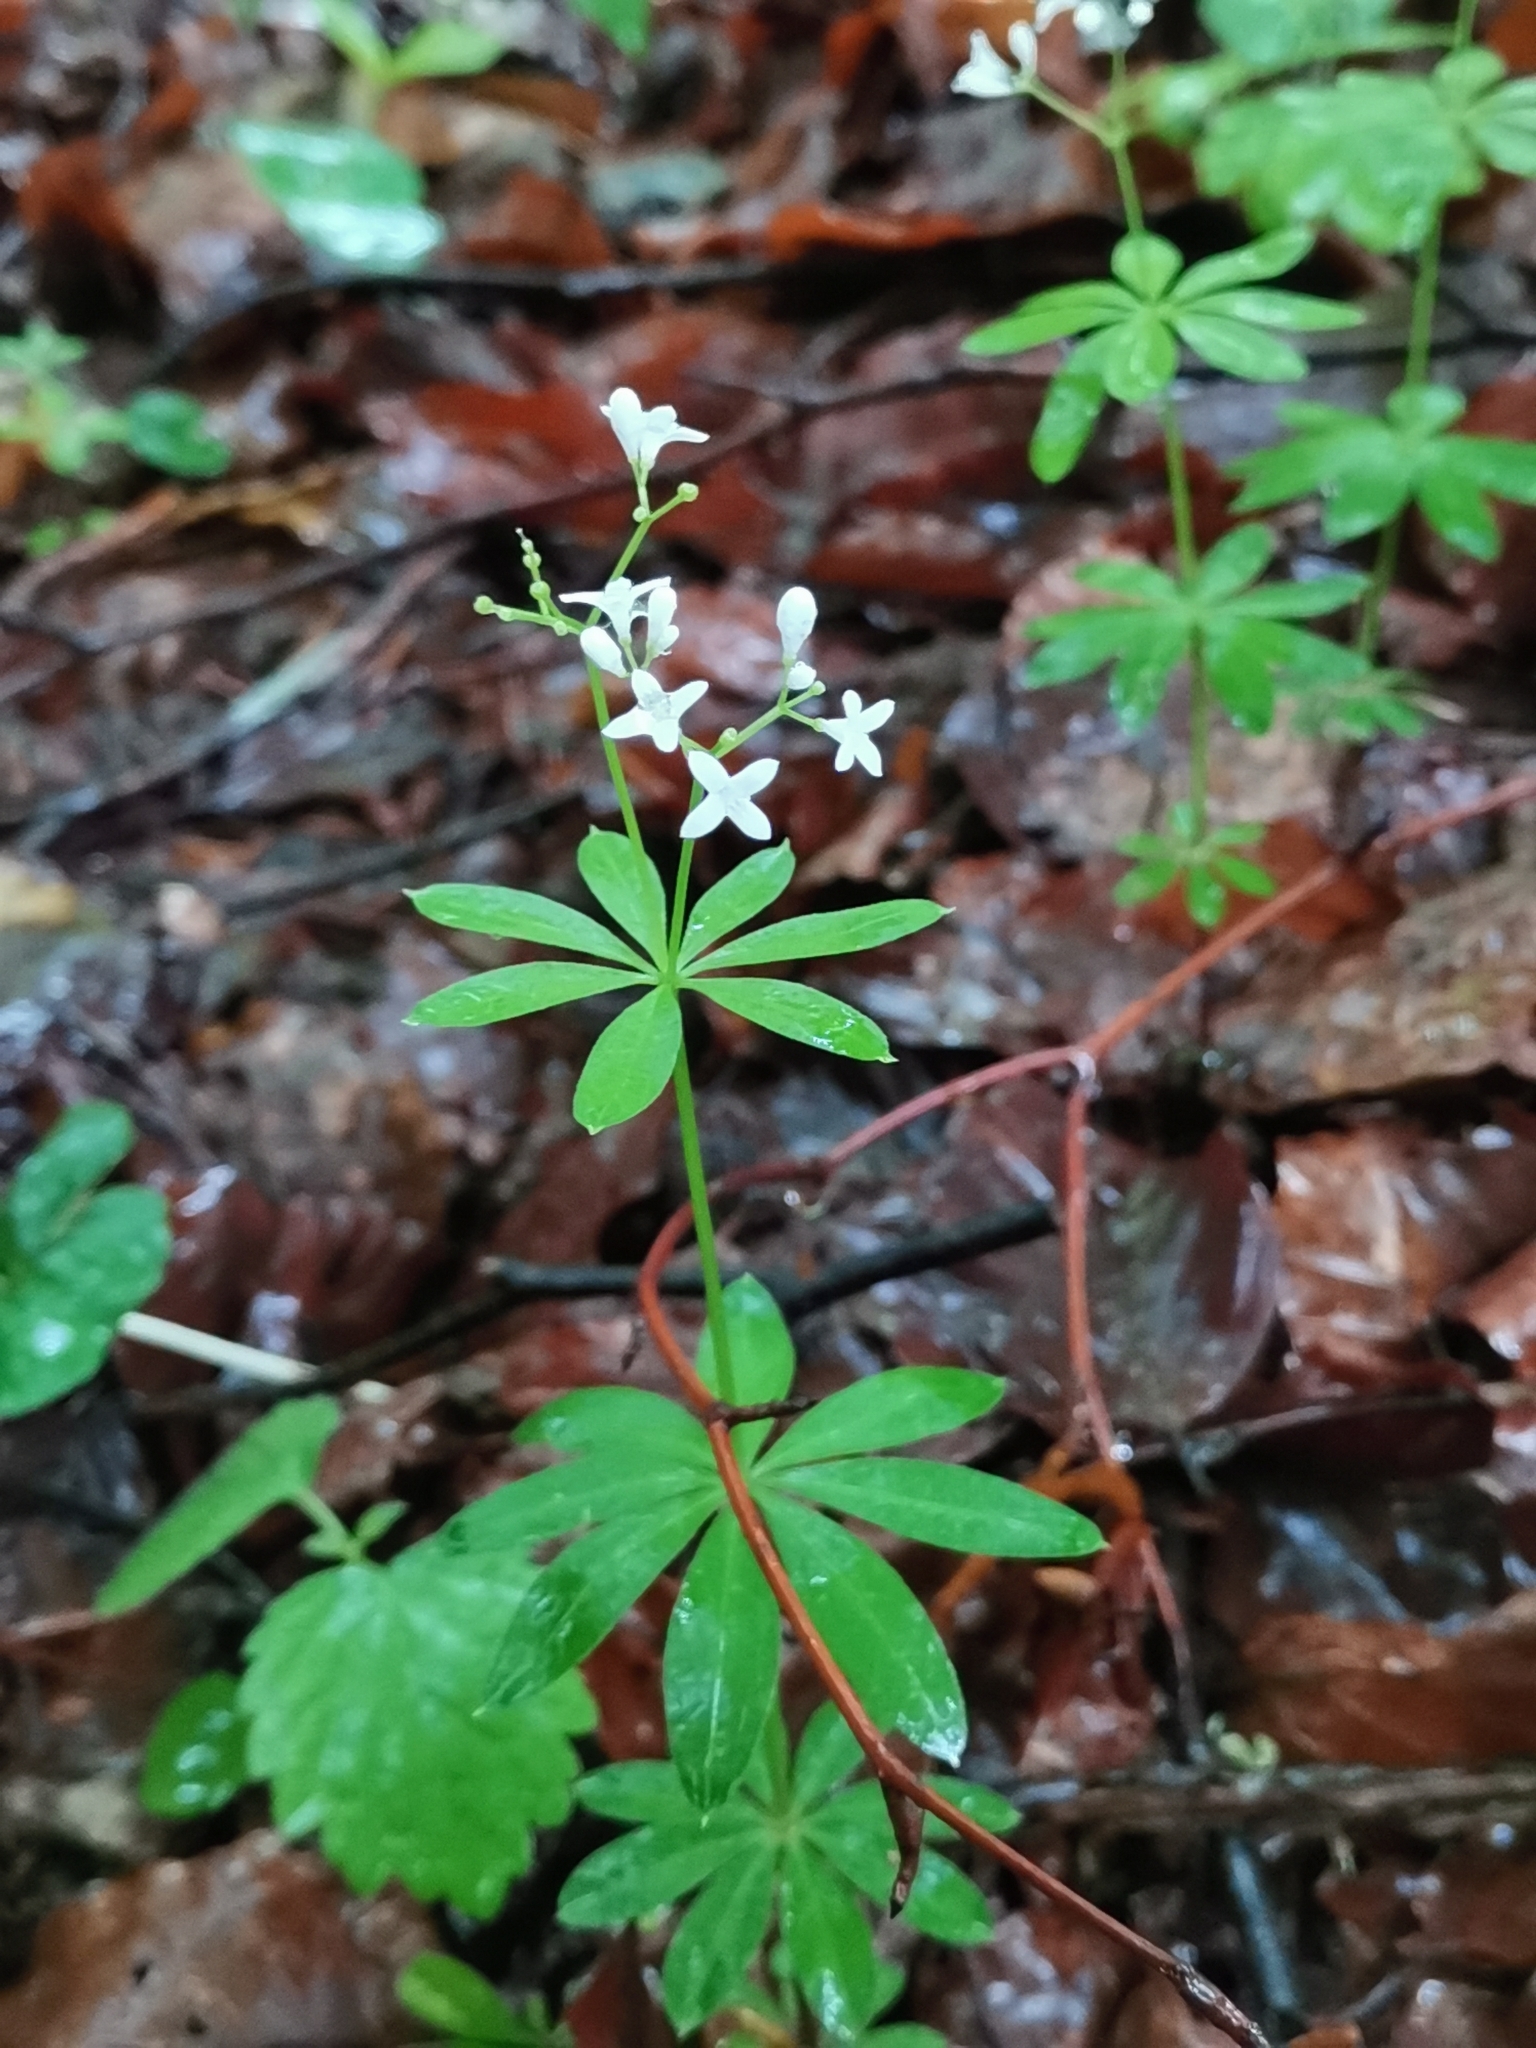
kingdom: Plantae
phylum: Tracheophyta
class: Magnoliopsida
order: Gentianales
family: Rubiaceae
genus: Galium
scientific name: Galium odoratum
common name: Sweet woodruff
